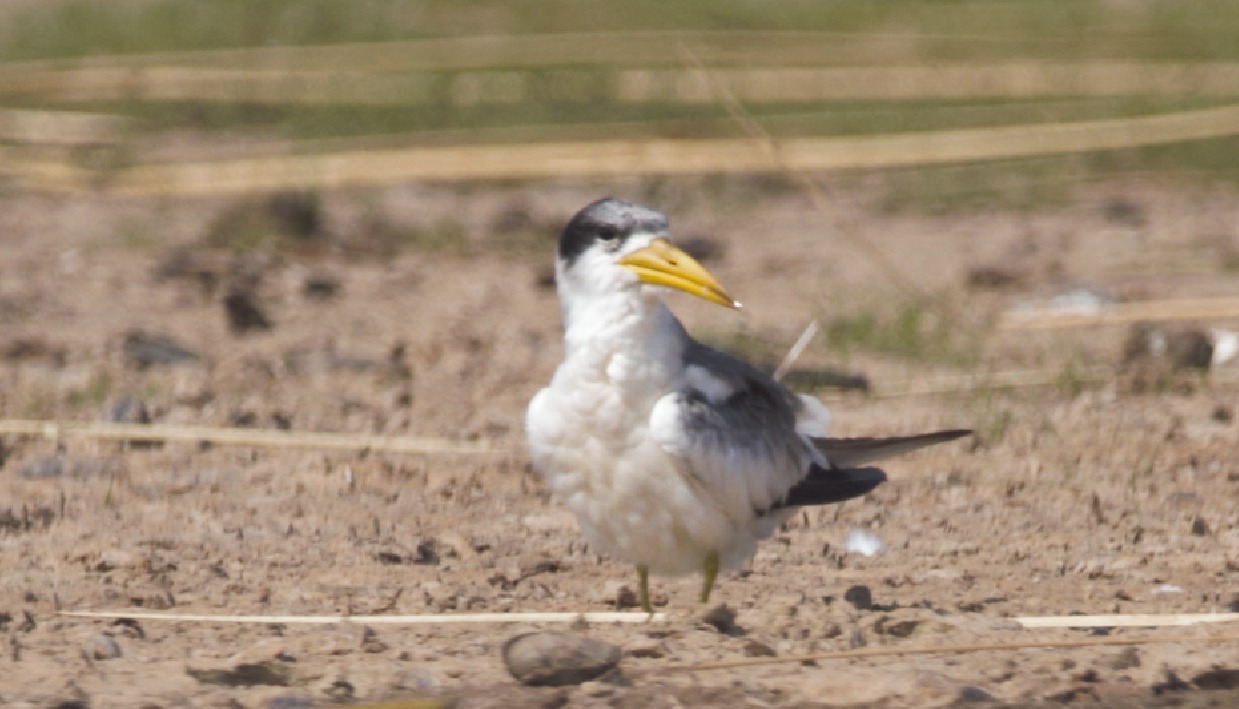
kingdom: Animalia
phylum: Chordata
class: Aves
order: Charadriiformes
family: Laridae
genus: Phaetusa
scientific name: Phaetusa simplex
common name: Large-billed tern
